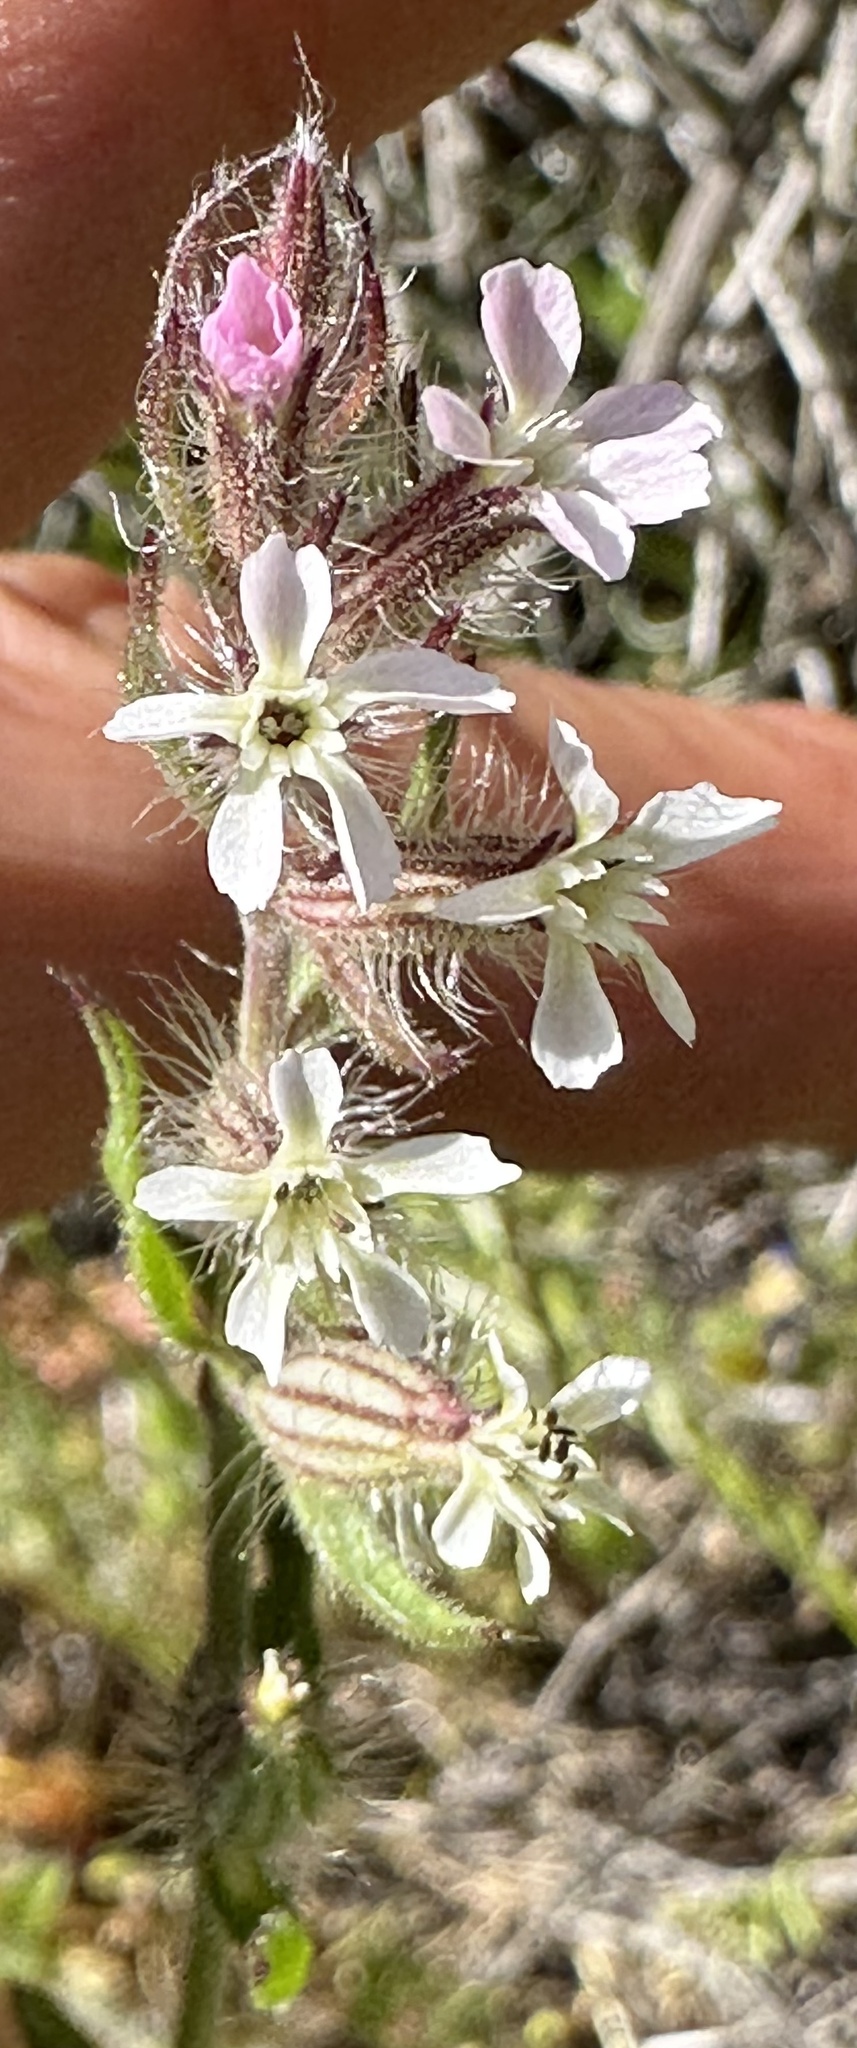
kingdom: Plantae
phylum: Tracheophyta
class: Magnoliopsida
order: Caryophyllales
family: Caryophyllaceae
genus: Silene
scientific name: Silene gallica
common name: Small-flowered catchfly
